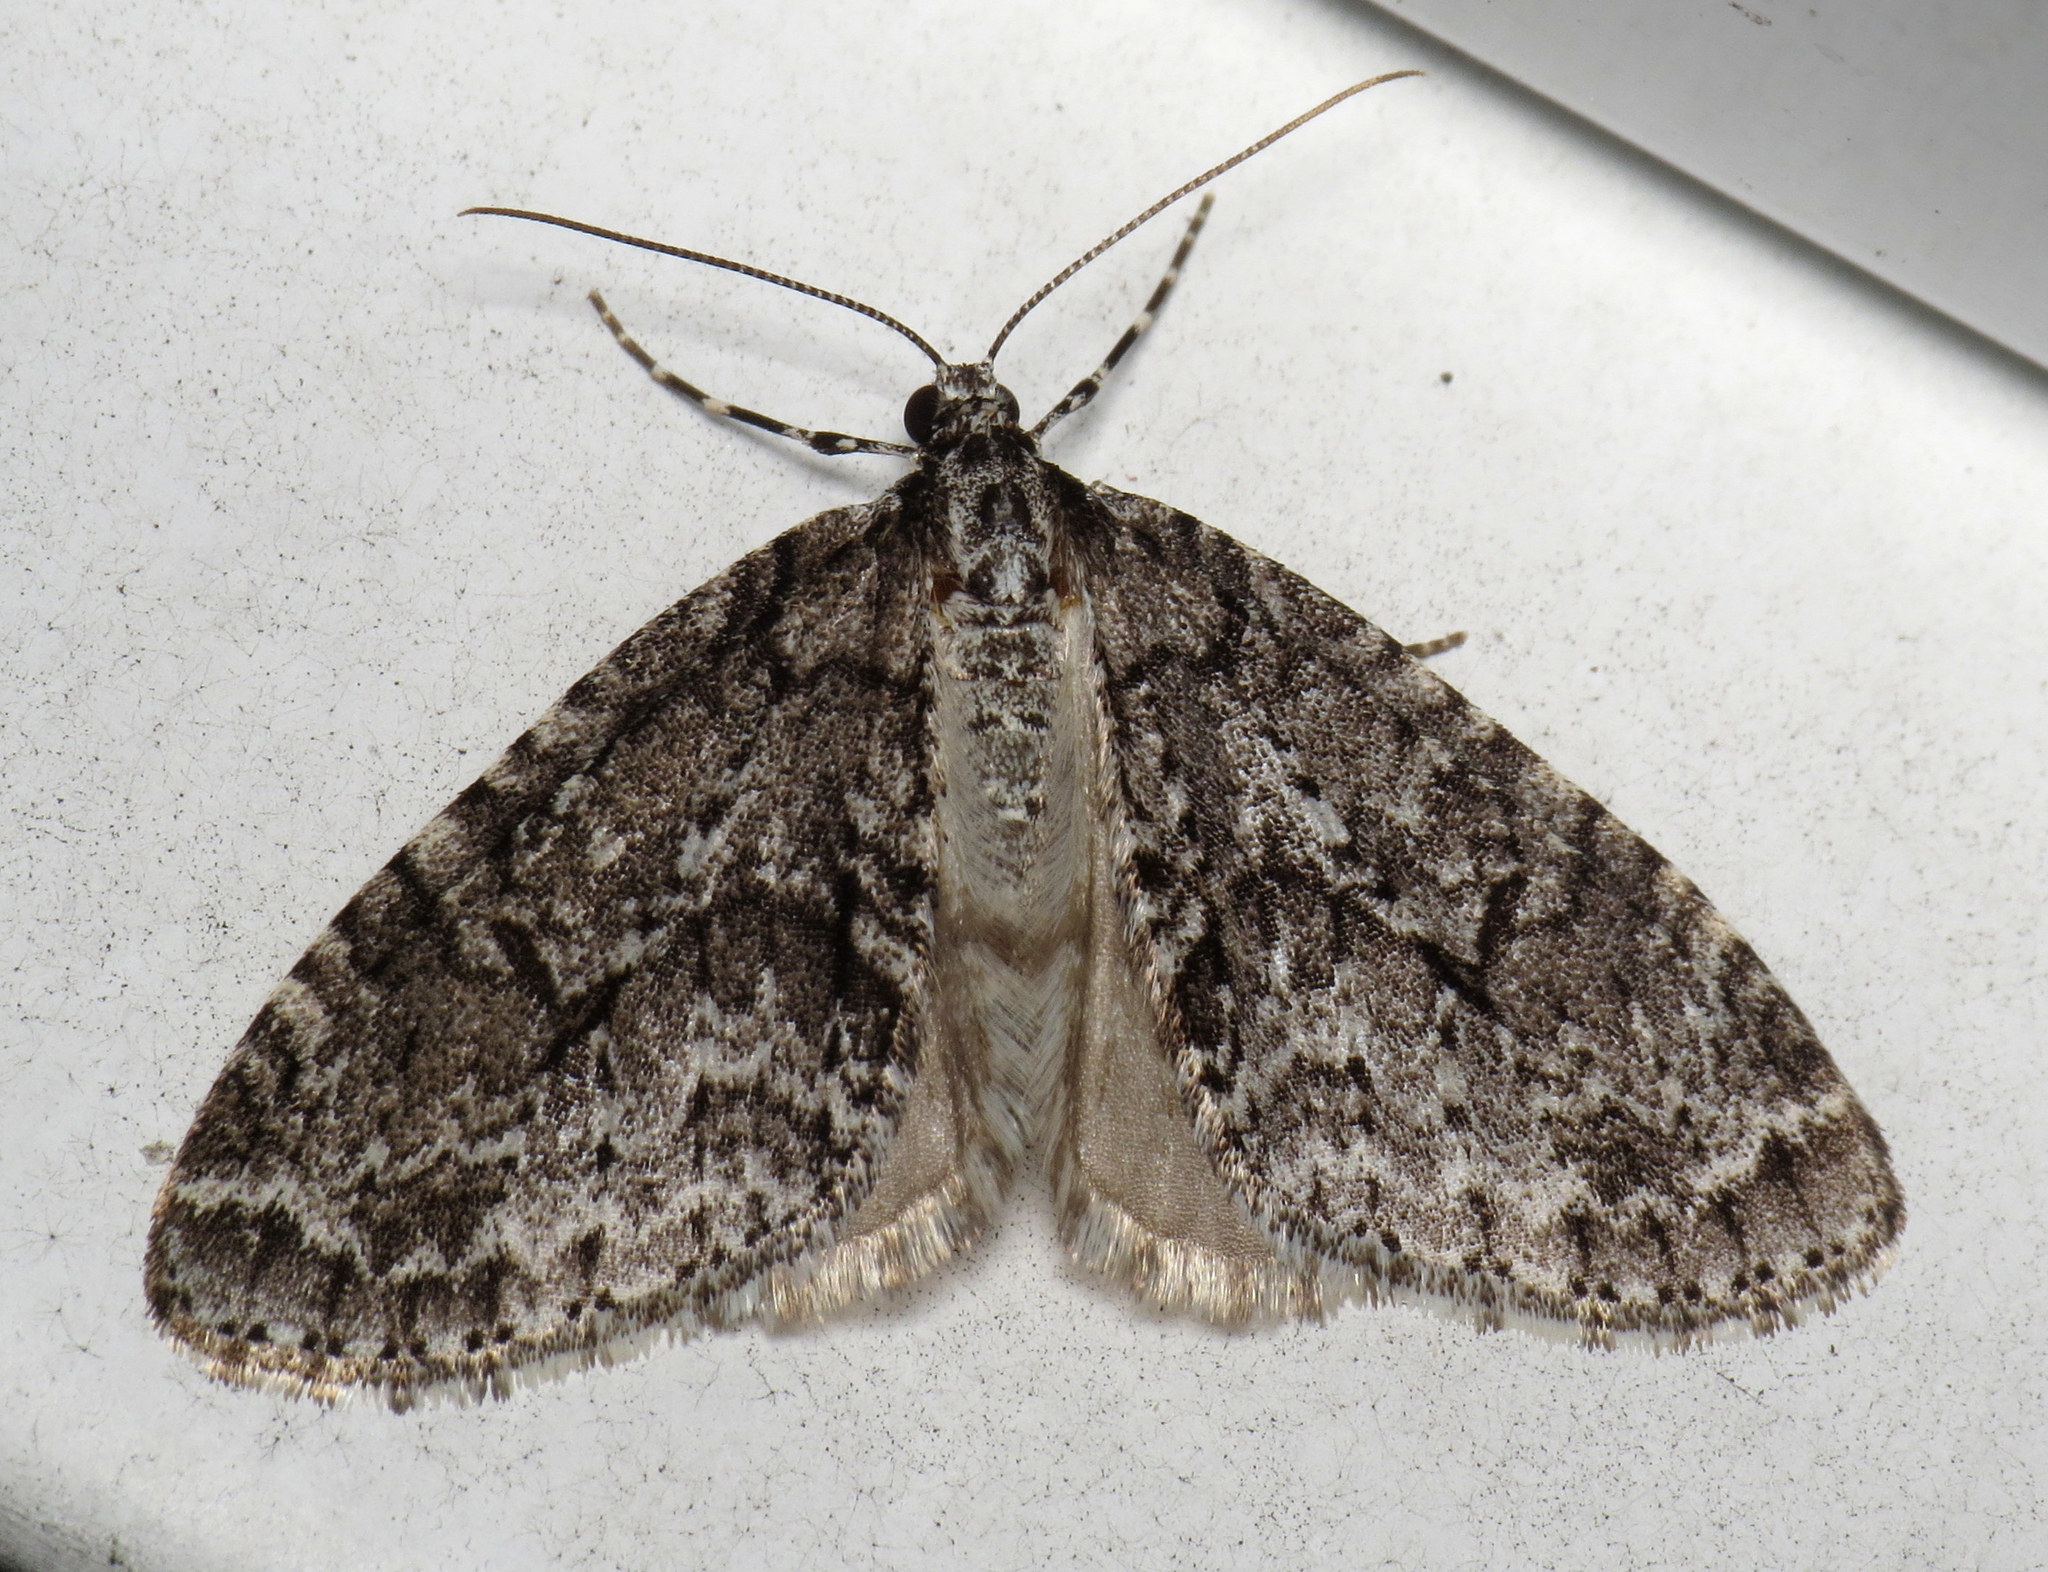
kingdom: Animalia
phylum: Arthropoda
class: Insecta
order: Lepidoptera
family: Geometridae
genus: Cladara
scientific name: Cladara limitaria
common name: Mottled gray carpet
